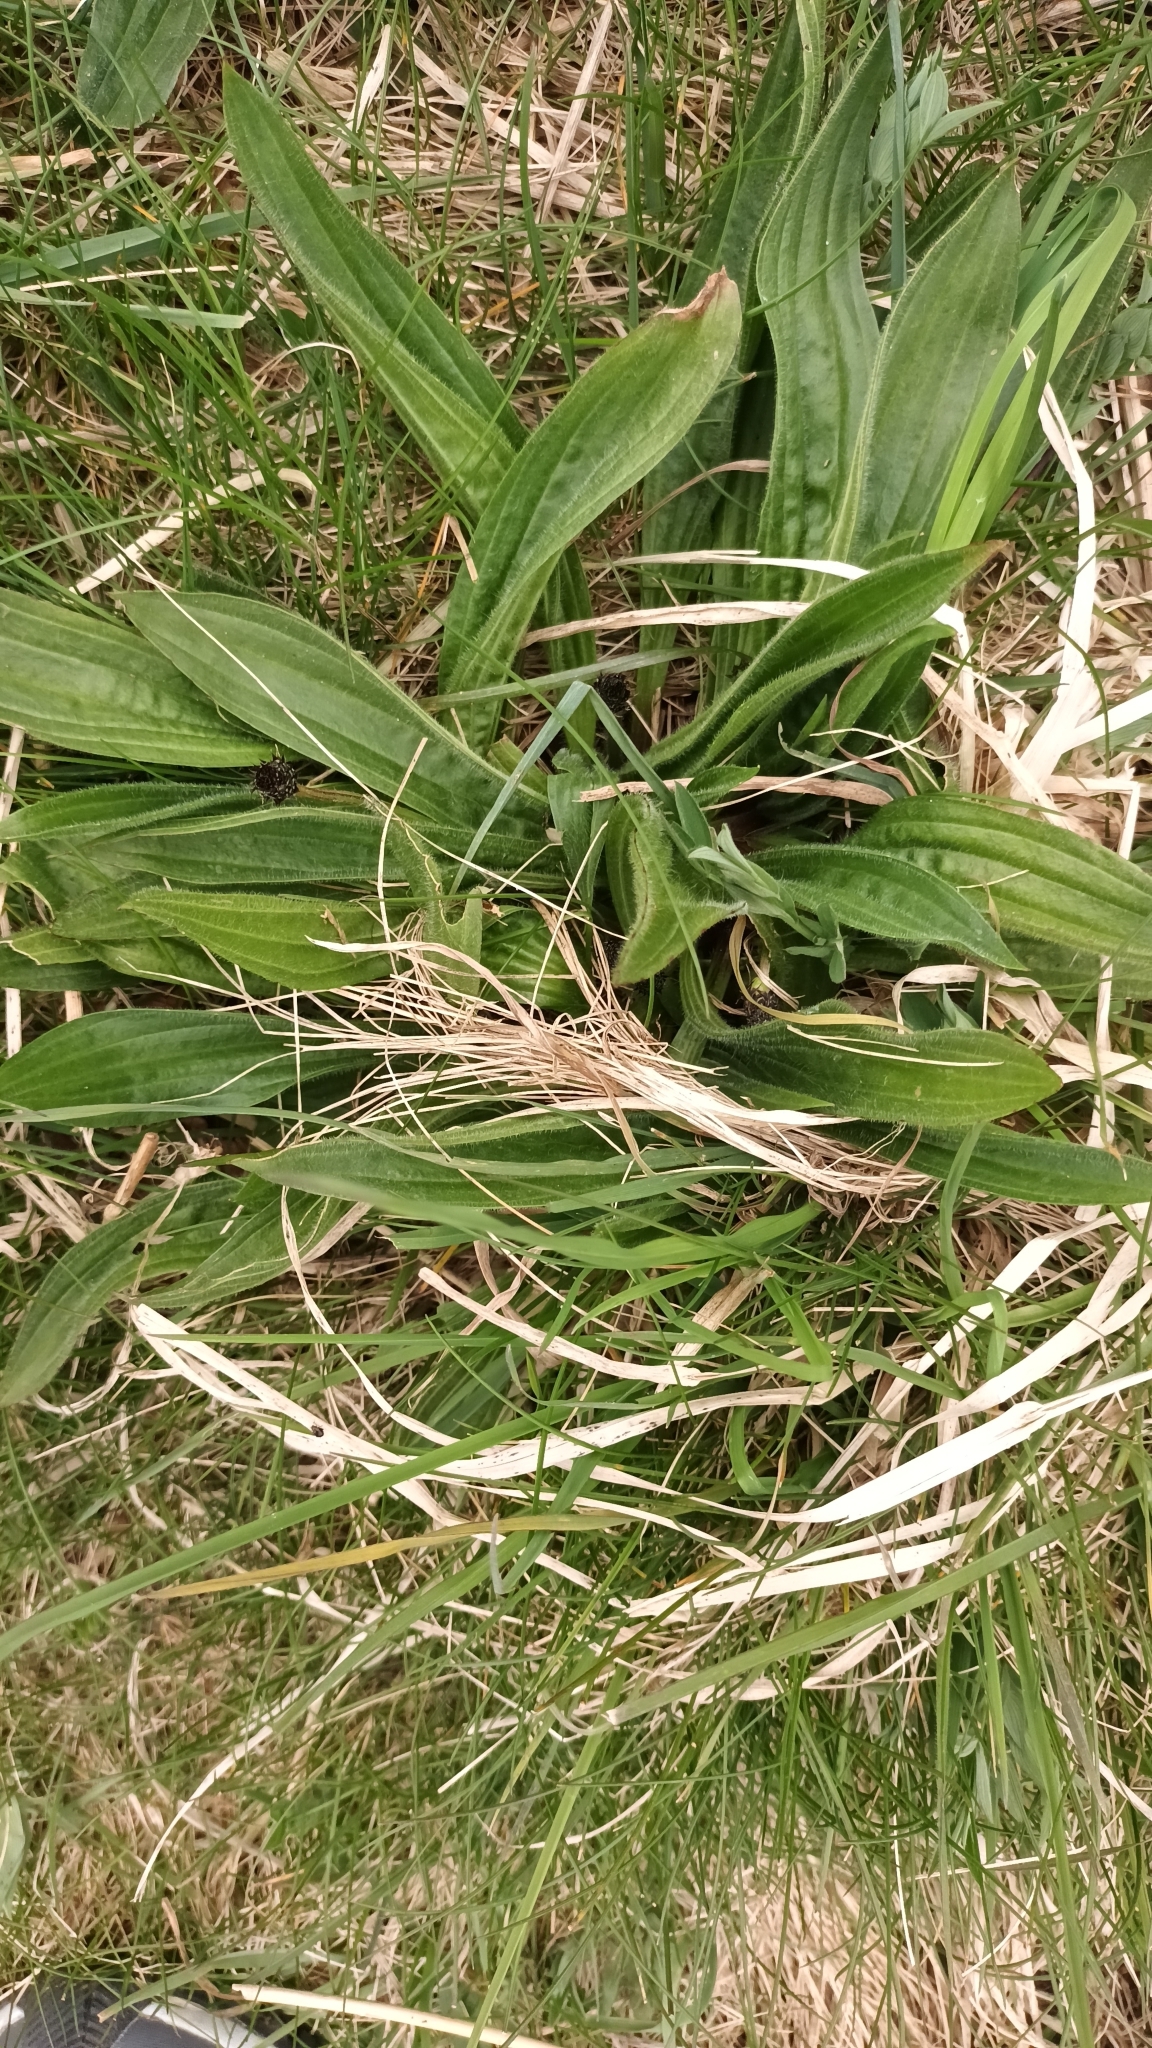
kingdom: Plantae
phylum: Tracheophyta
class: Magnoliopsida
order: Lamiales
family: Plantaginaceae
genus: Plantago
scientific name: Plantago lanceolata
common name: Ribwort plantain
